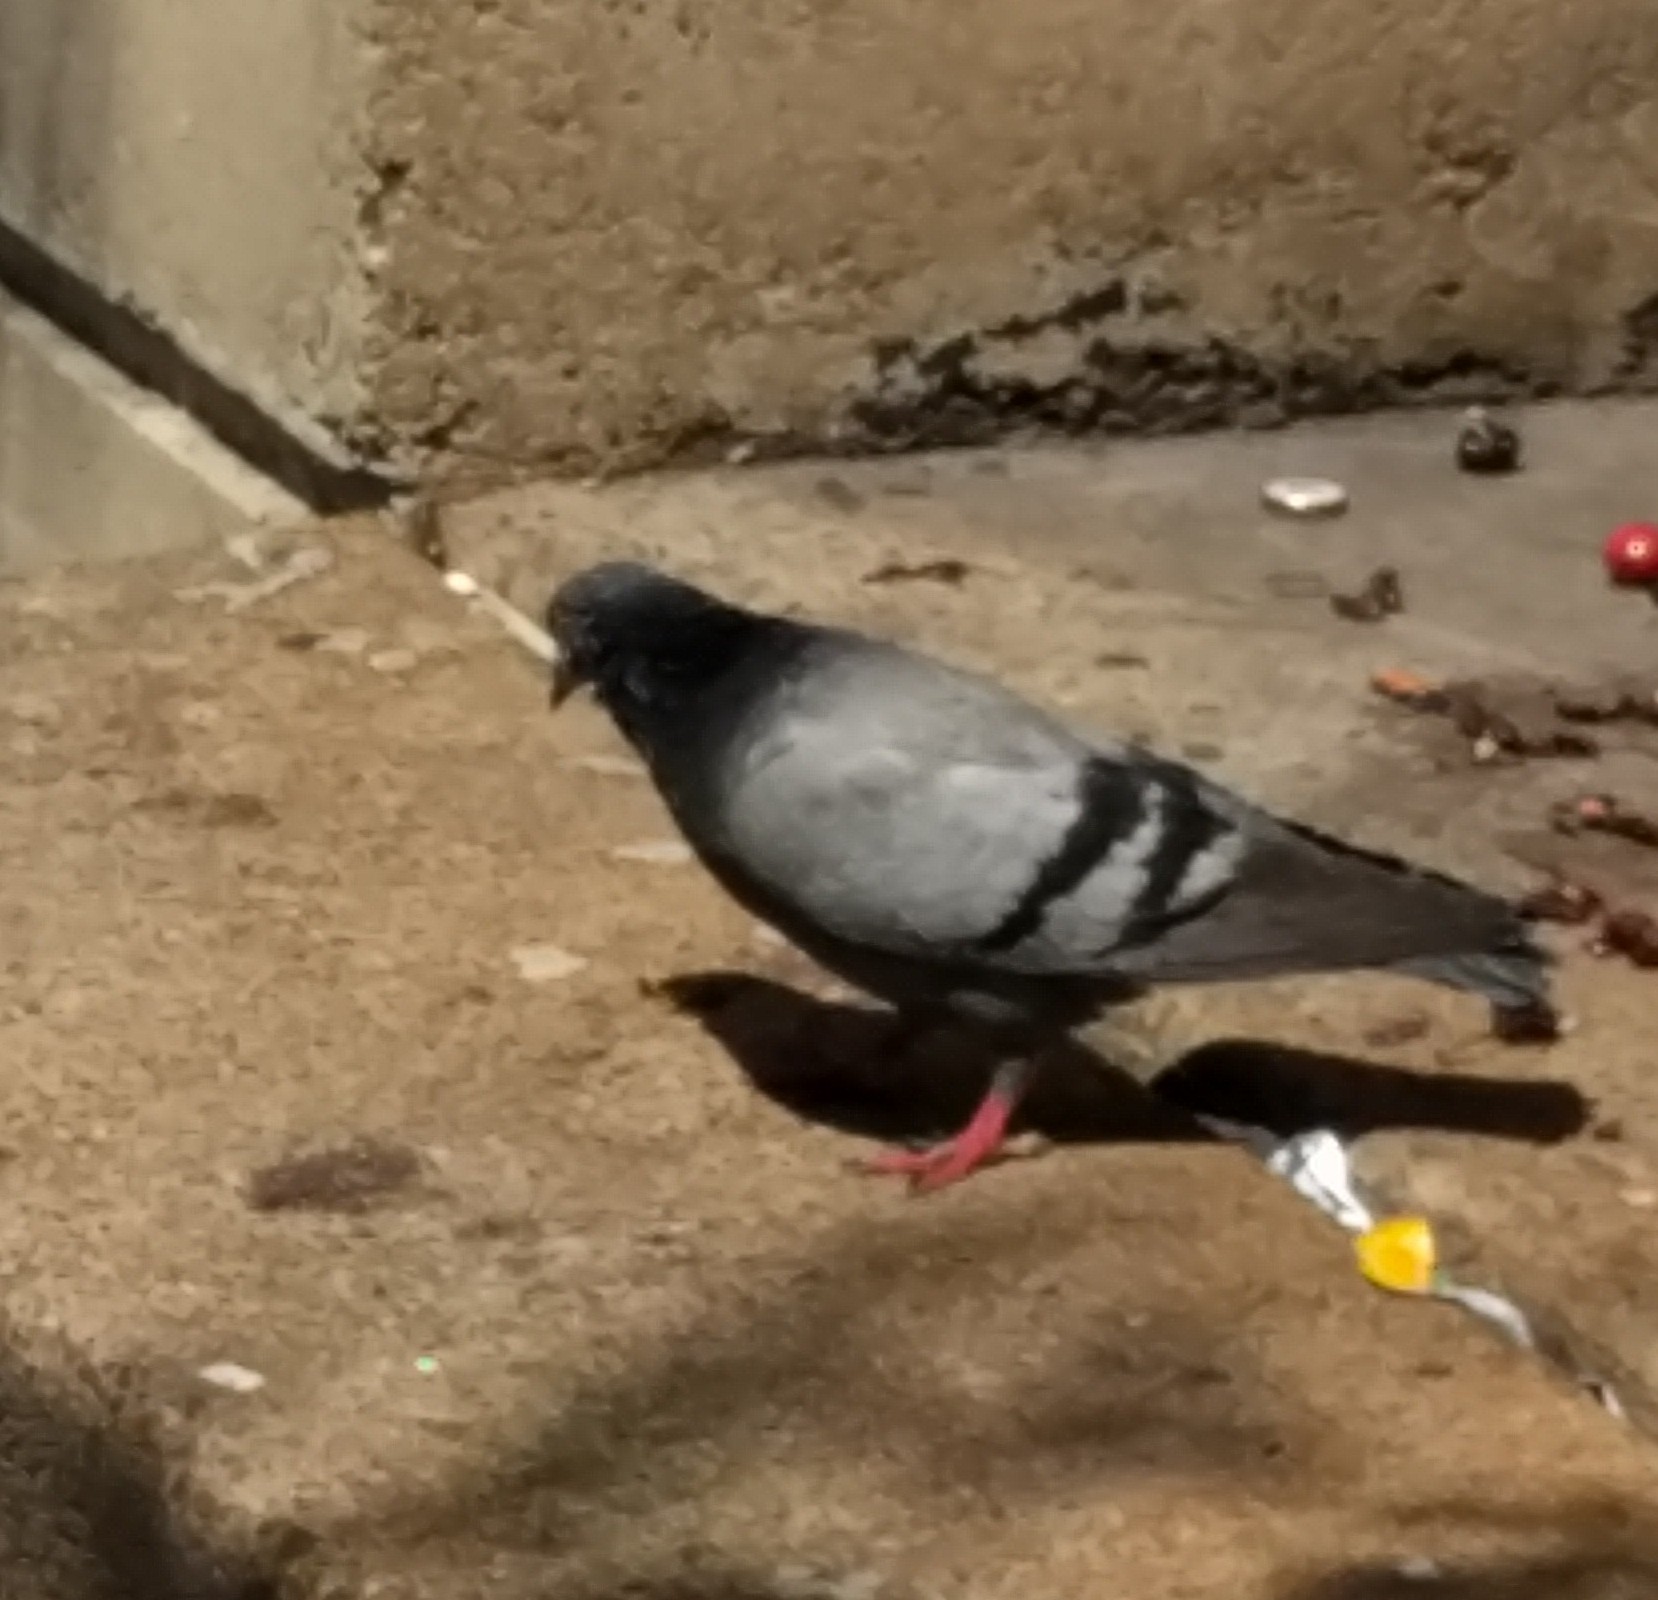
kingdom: Animalia
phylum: Chordata
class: Aves
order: Columbiformes
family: Columbidae
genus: Columba
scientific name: Columba livia
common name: Rock pigeon
